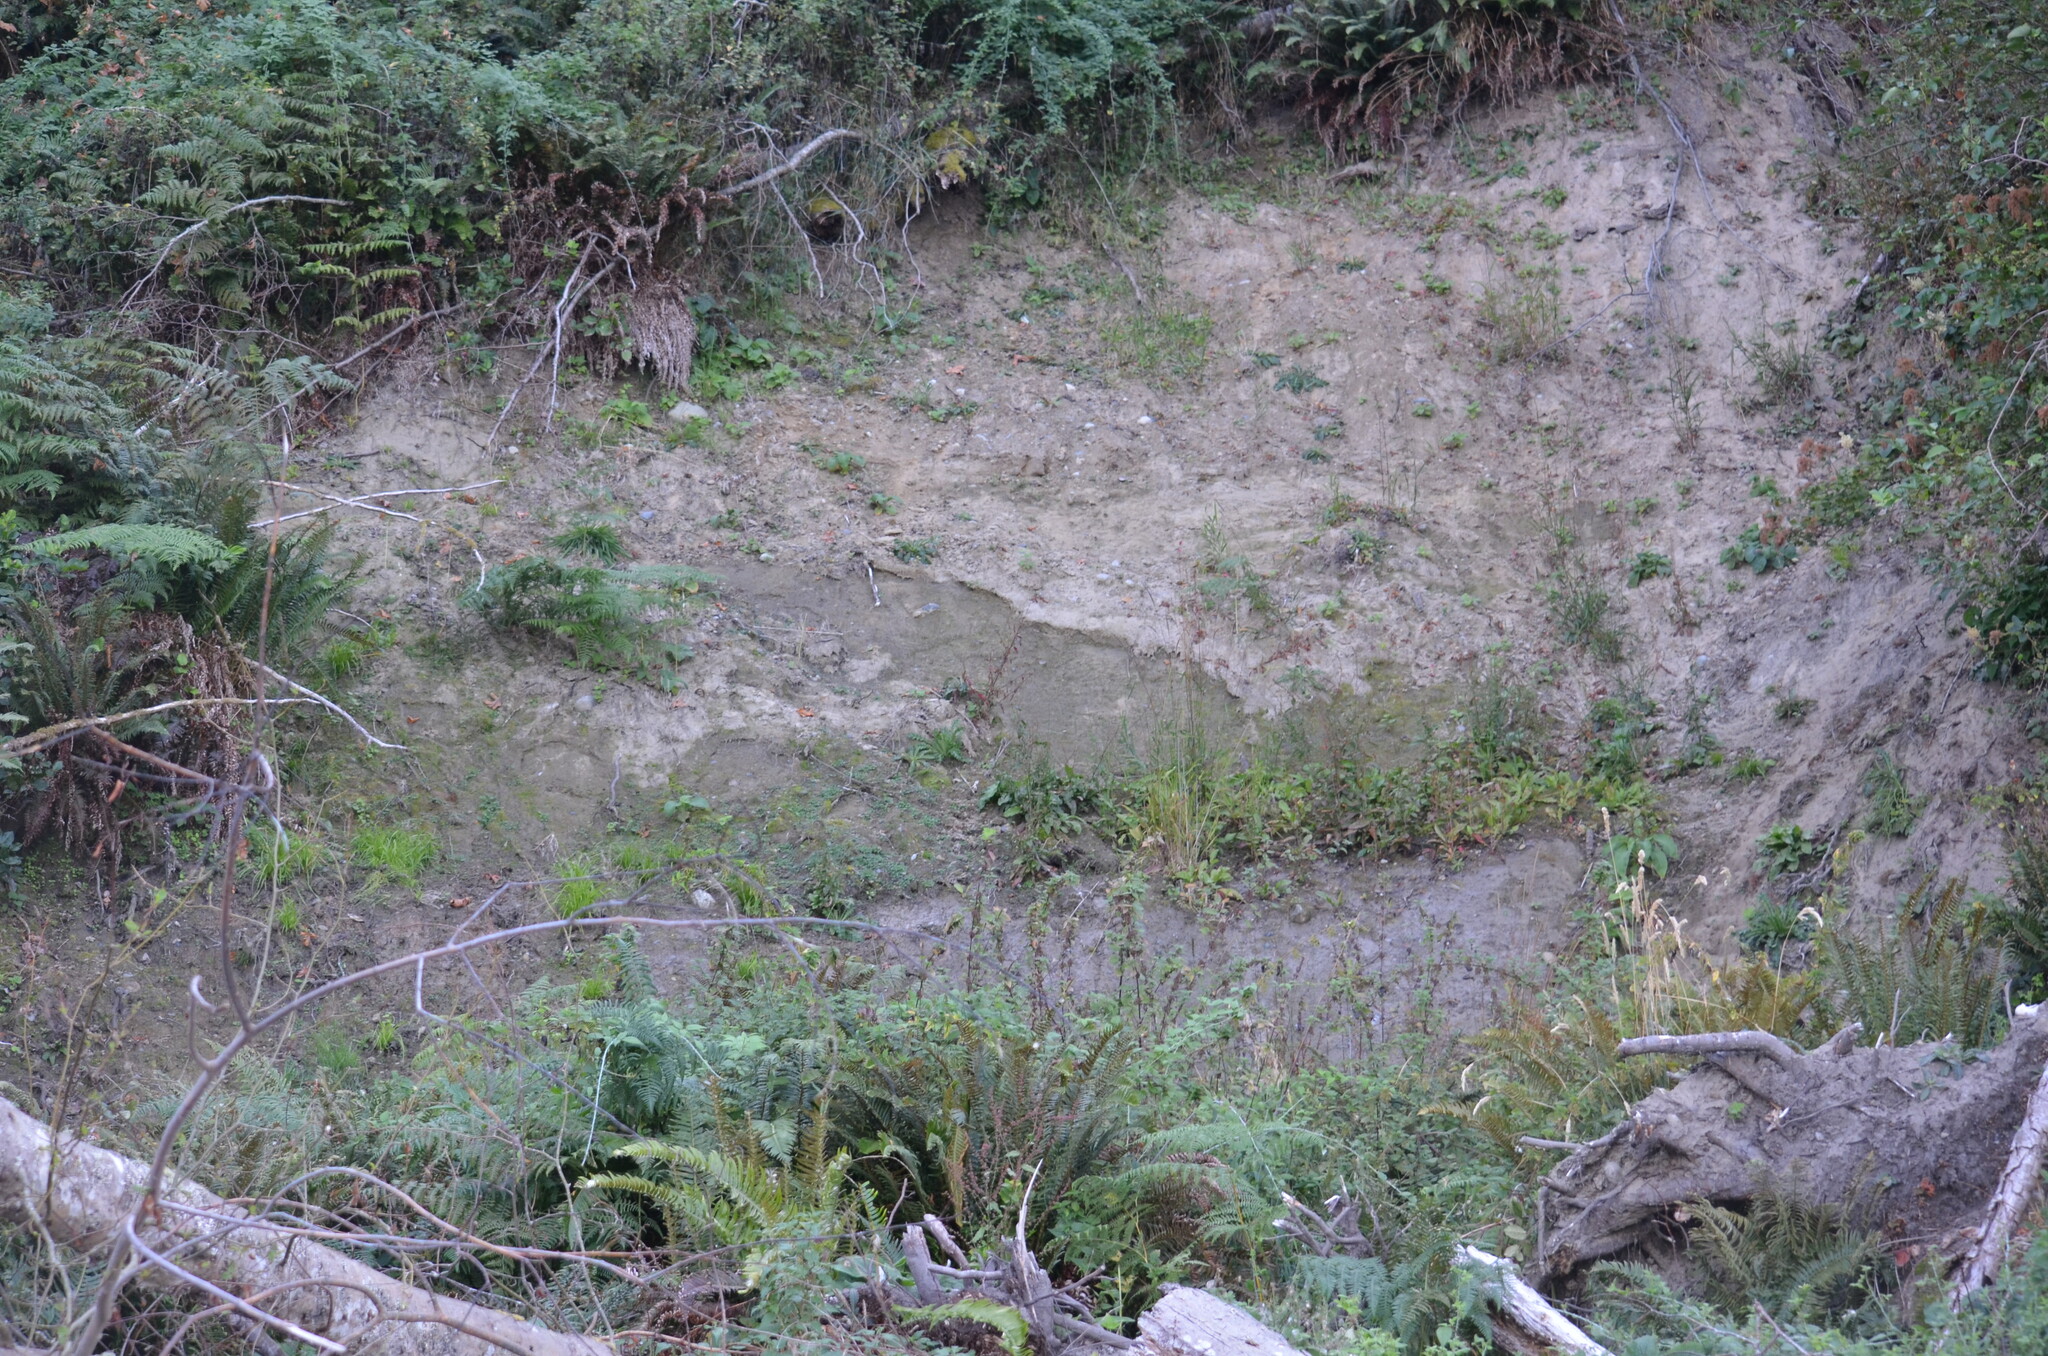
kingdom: Plantae
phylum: Tracheophyta
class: Polypodiopsida
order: Polypodiales
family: Dryopteridaceae
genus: Polystichum
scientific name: Polystichum munitum
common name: Western sword-fern
